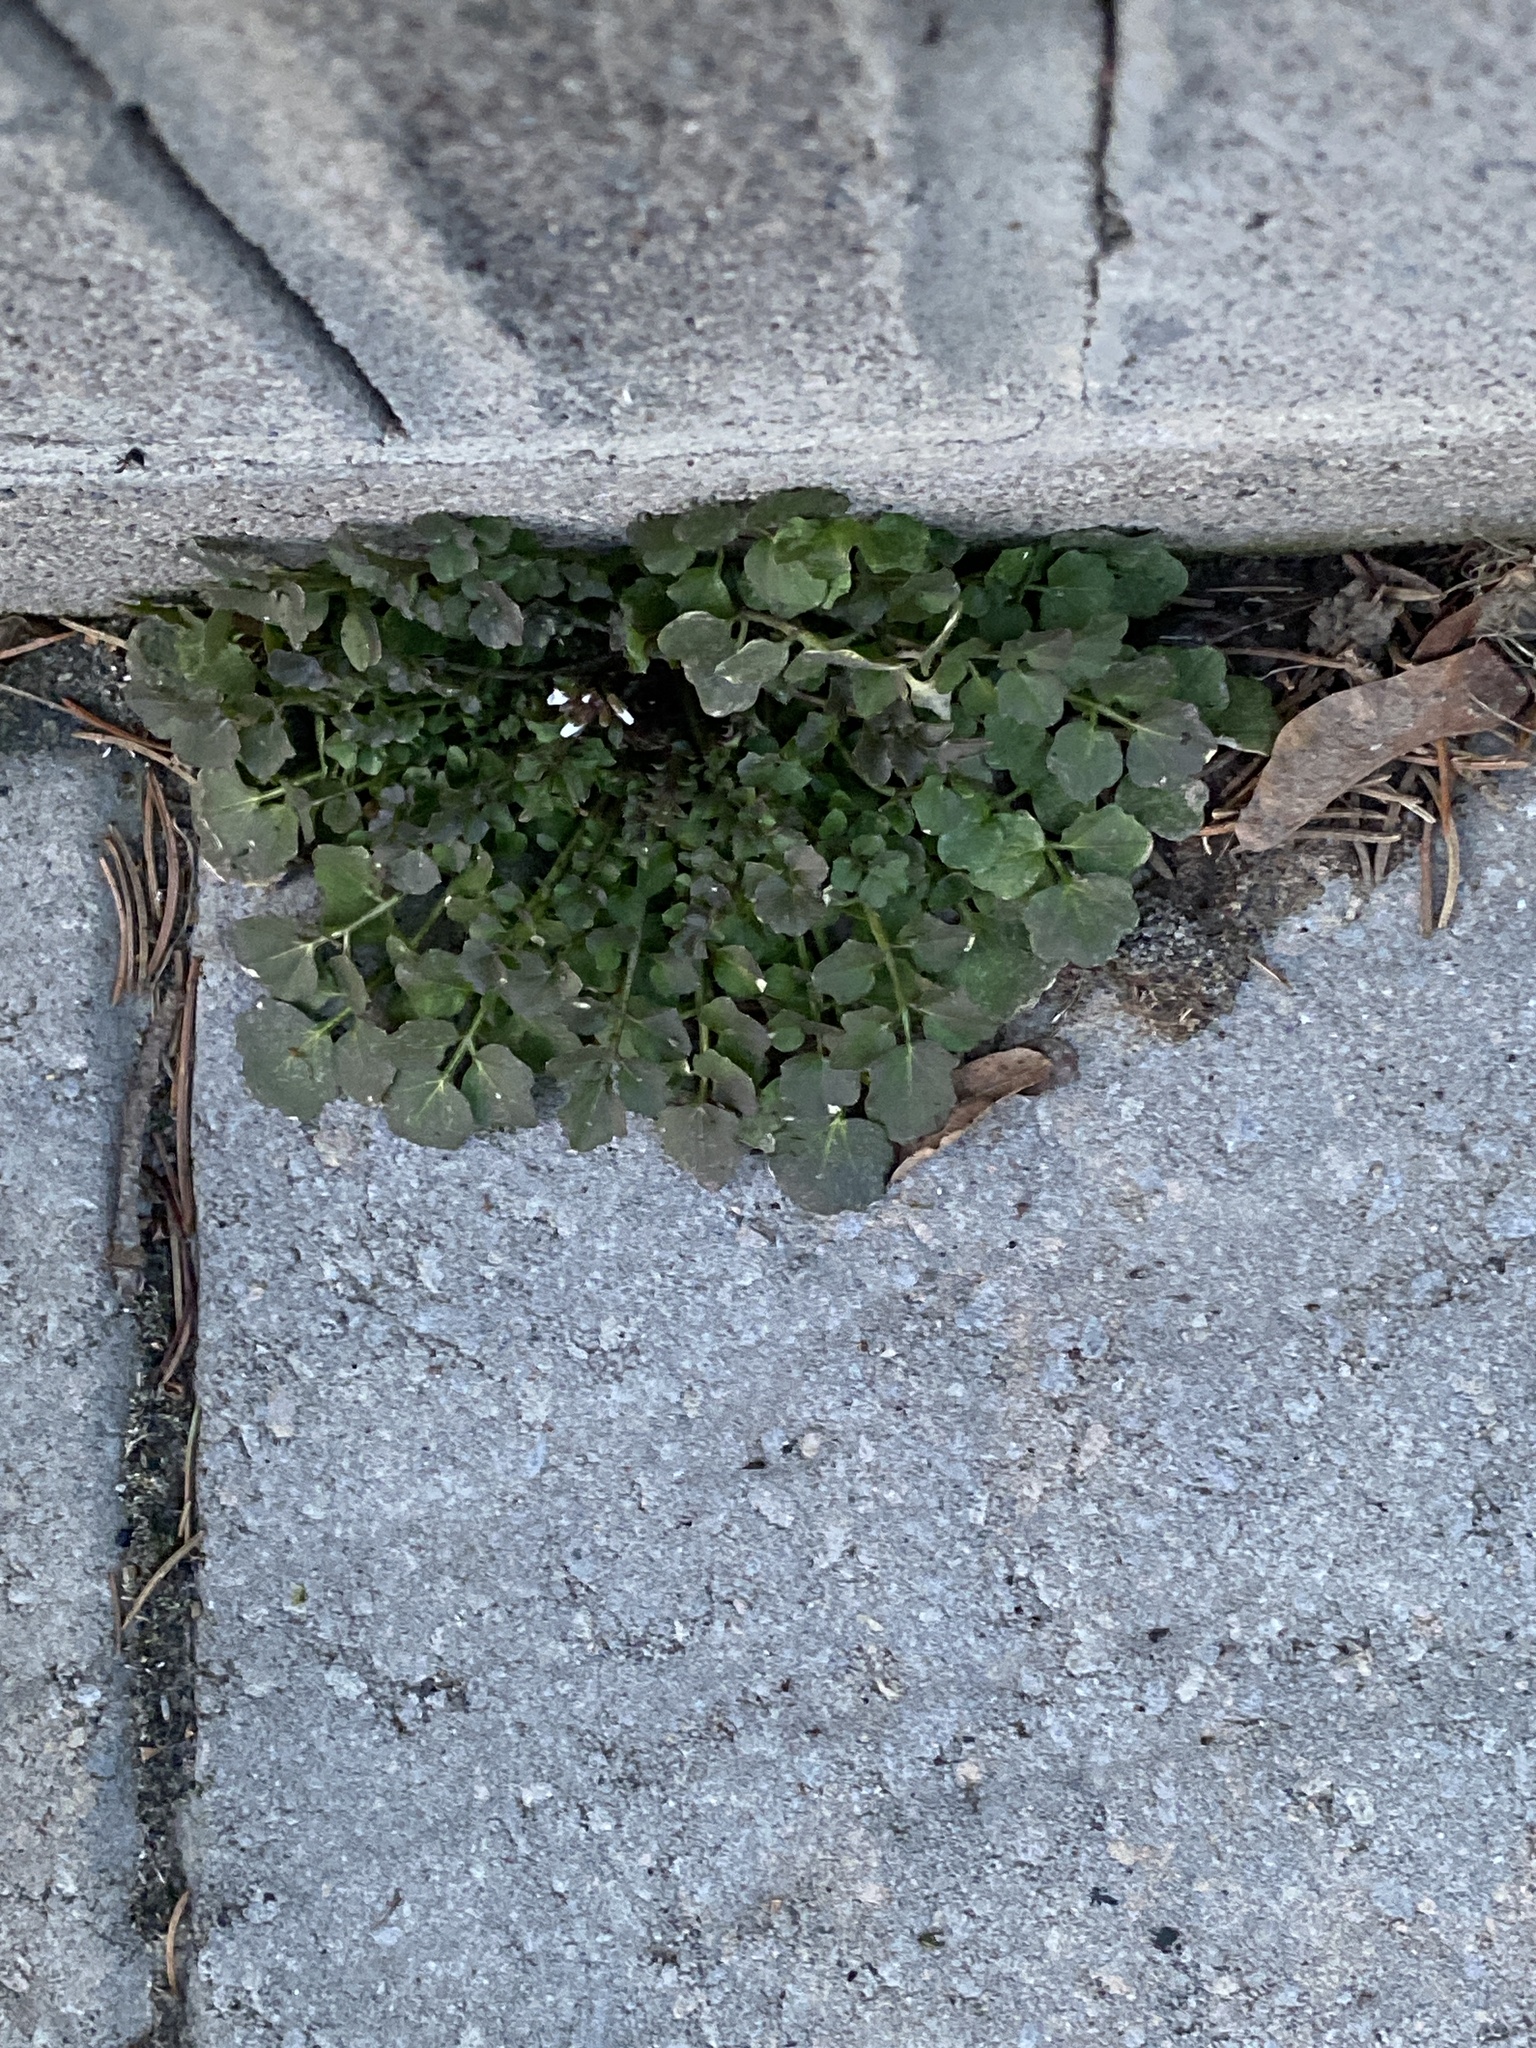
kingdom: Plantae
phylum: Tracheophyta
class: Magnoliopsida
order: Brassicales
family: Brassicaceae
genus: Cardamine
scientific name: Cardamine hirsuta
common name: Hairy bittercress
